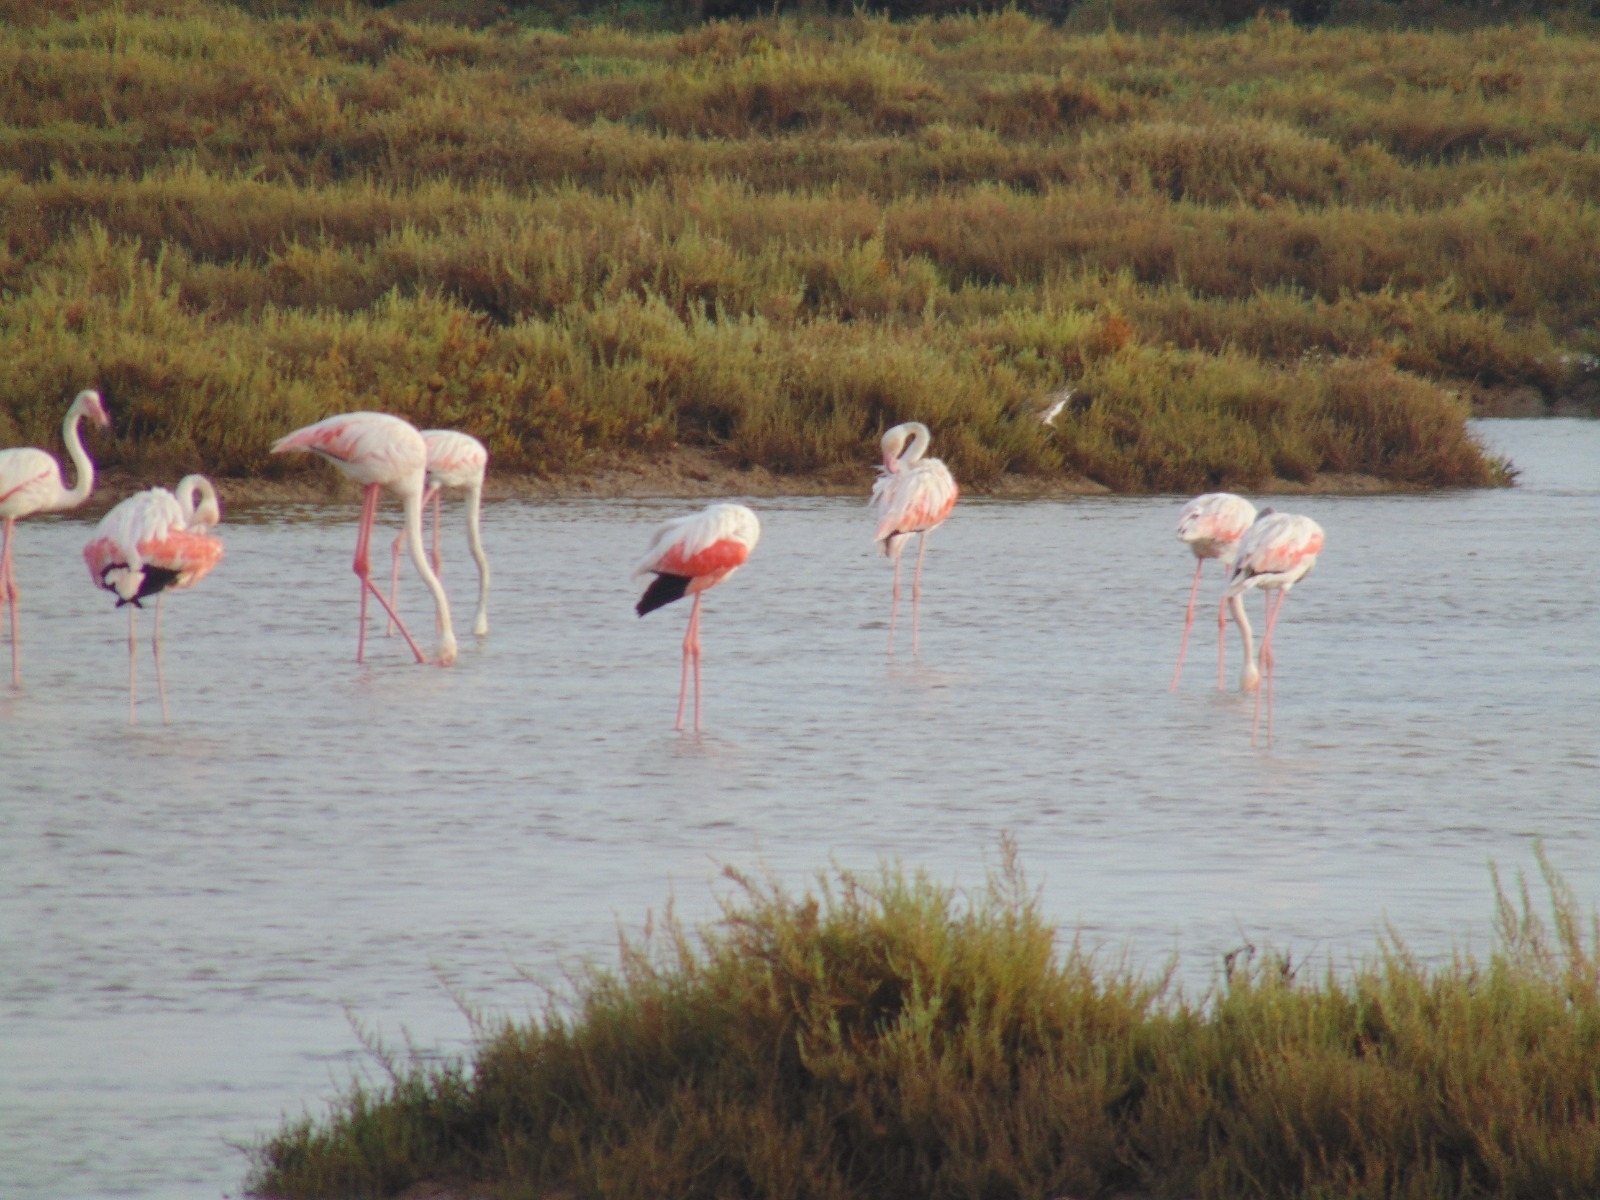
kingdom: Animalia
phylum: Chordata
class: Aves
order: Phoenicopteriformes
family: Phoenicopteridae
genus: Phoenicopterus
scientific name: Phoenicopterus roseus
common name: Greater flamingo
